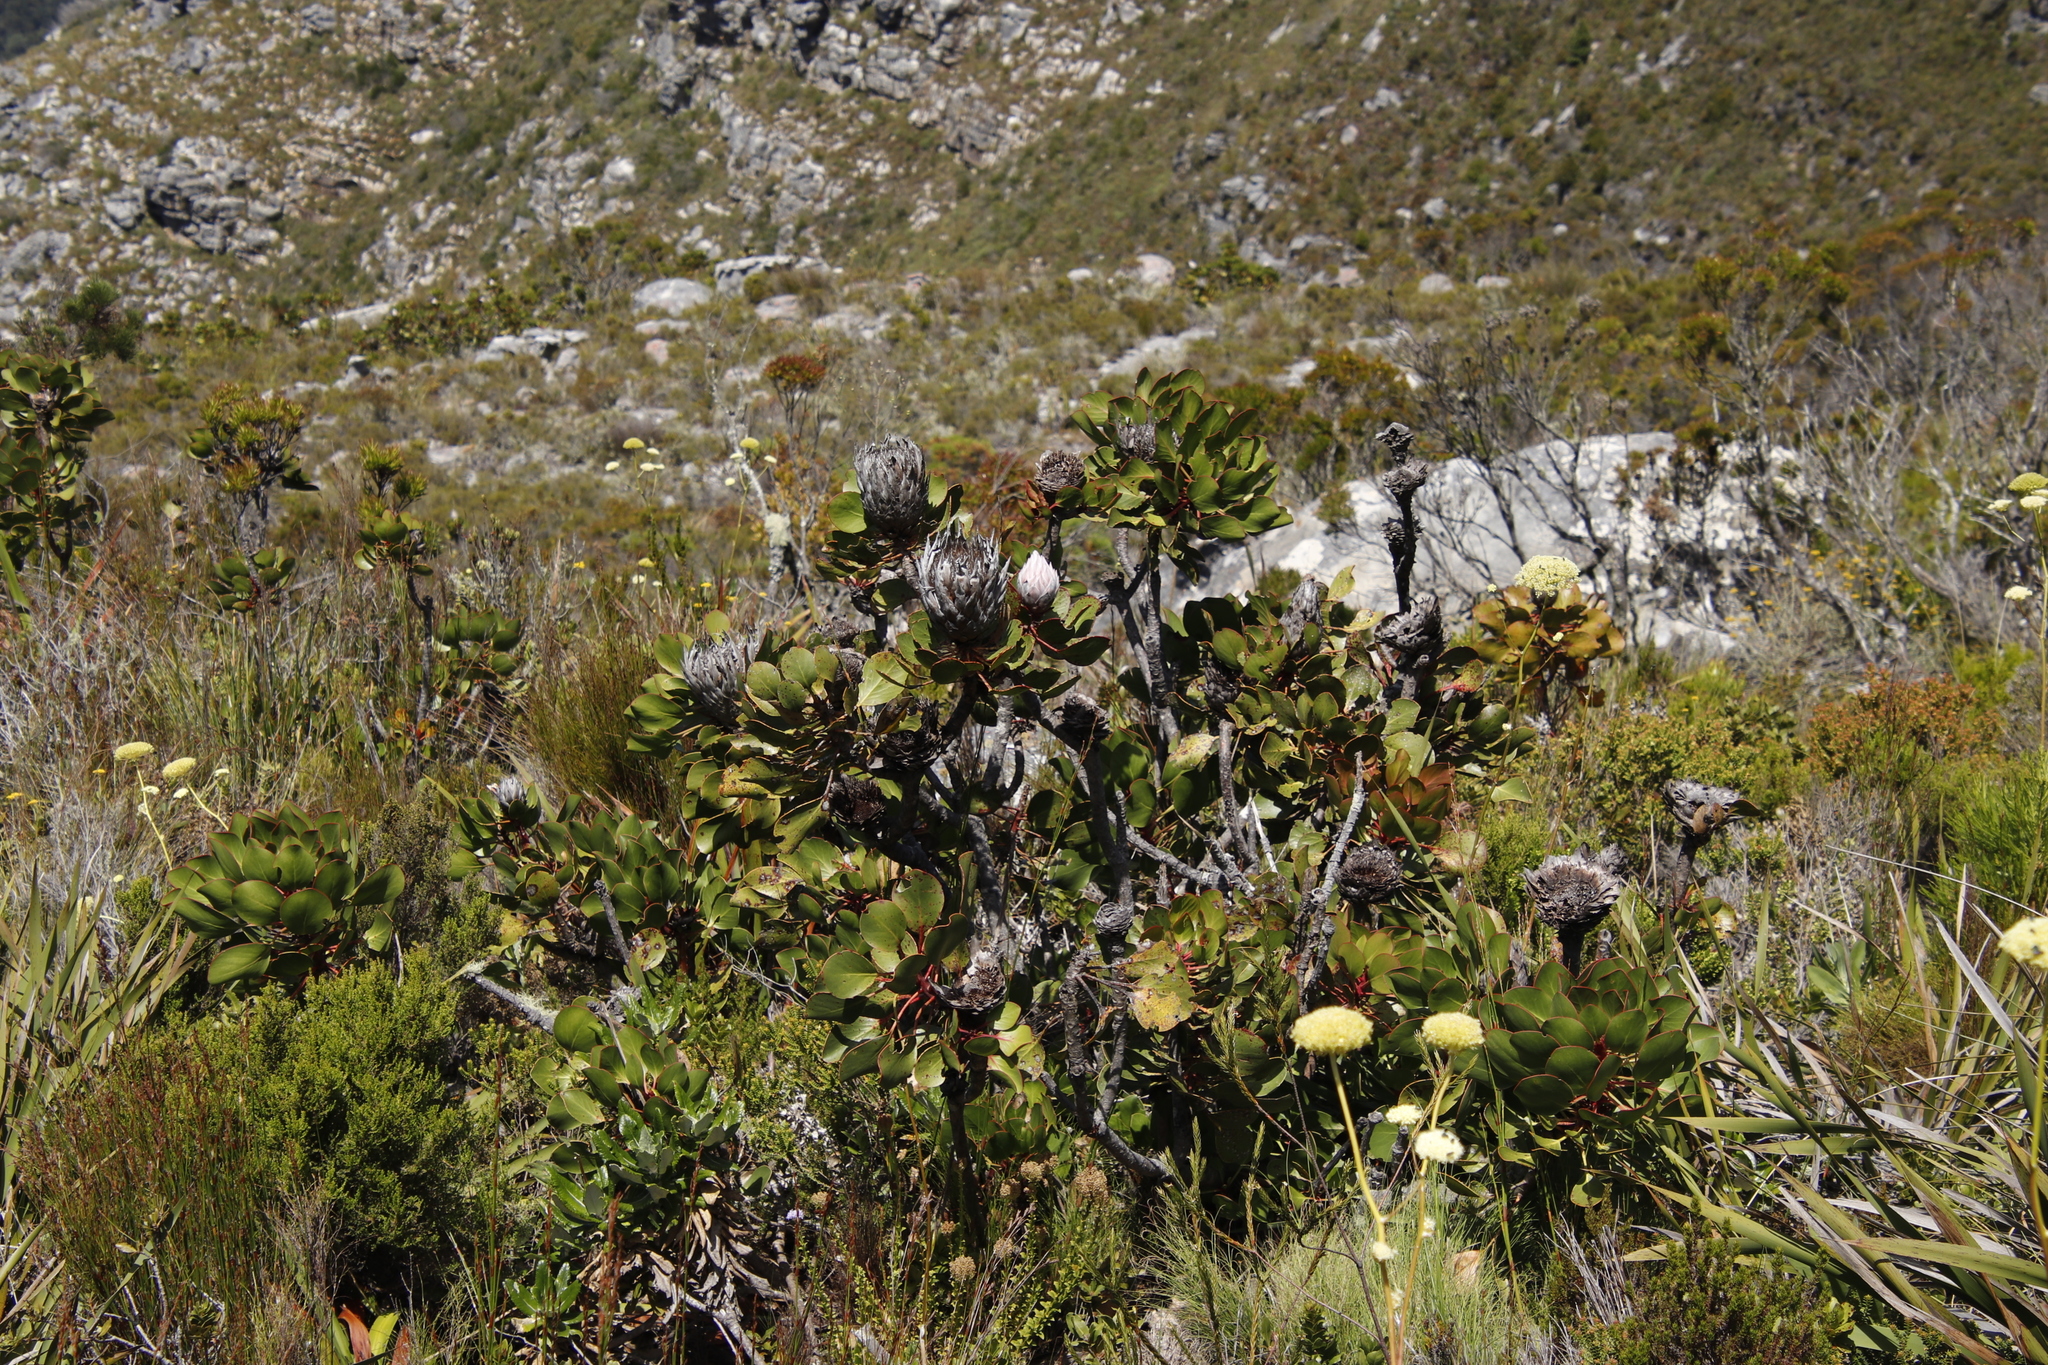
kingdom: Plantae
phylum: Tracheophyta
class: Magnoliopsida
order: Proteales
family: Proteaceae
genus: Protea
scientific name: Protea cynaroides
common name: King protea
